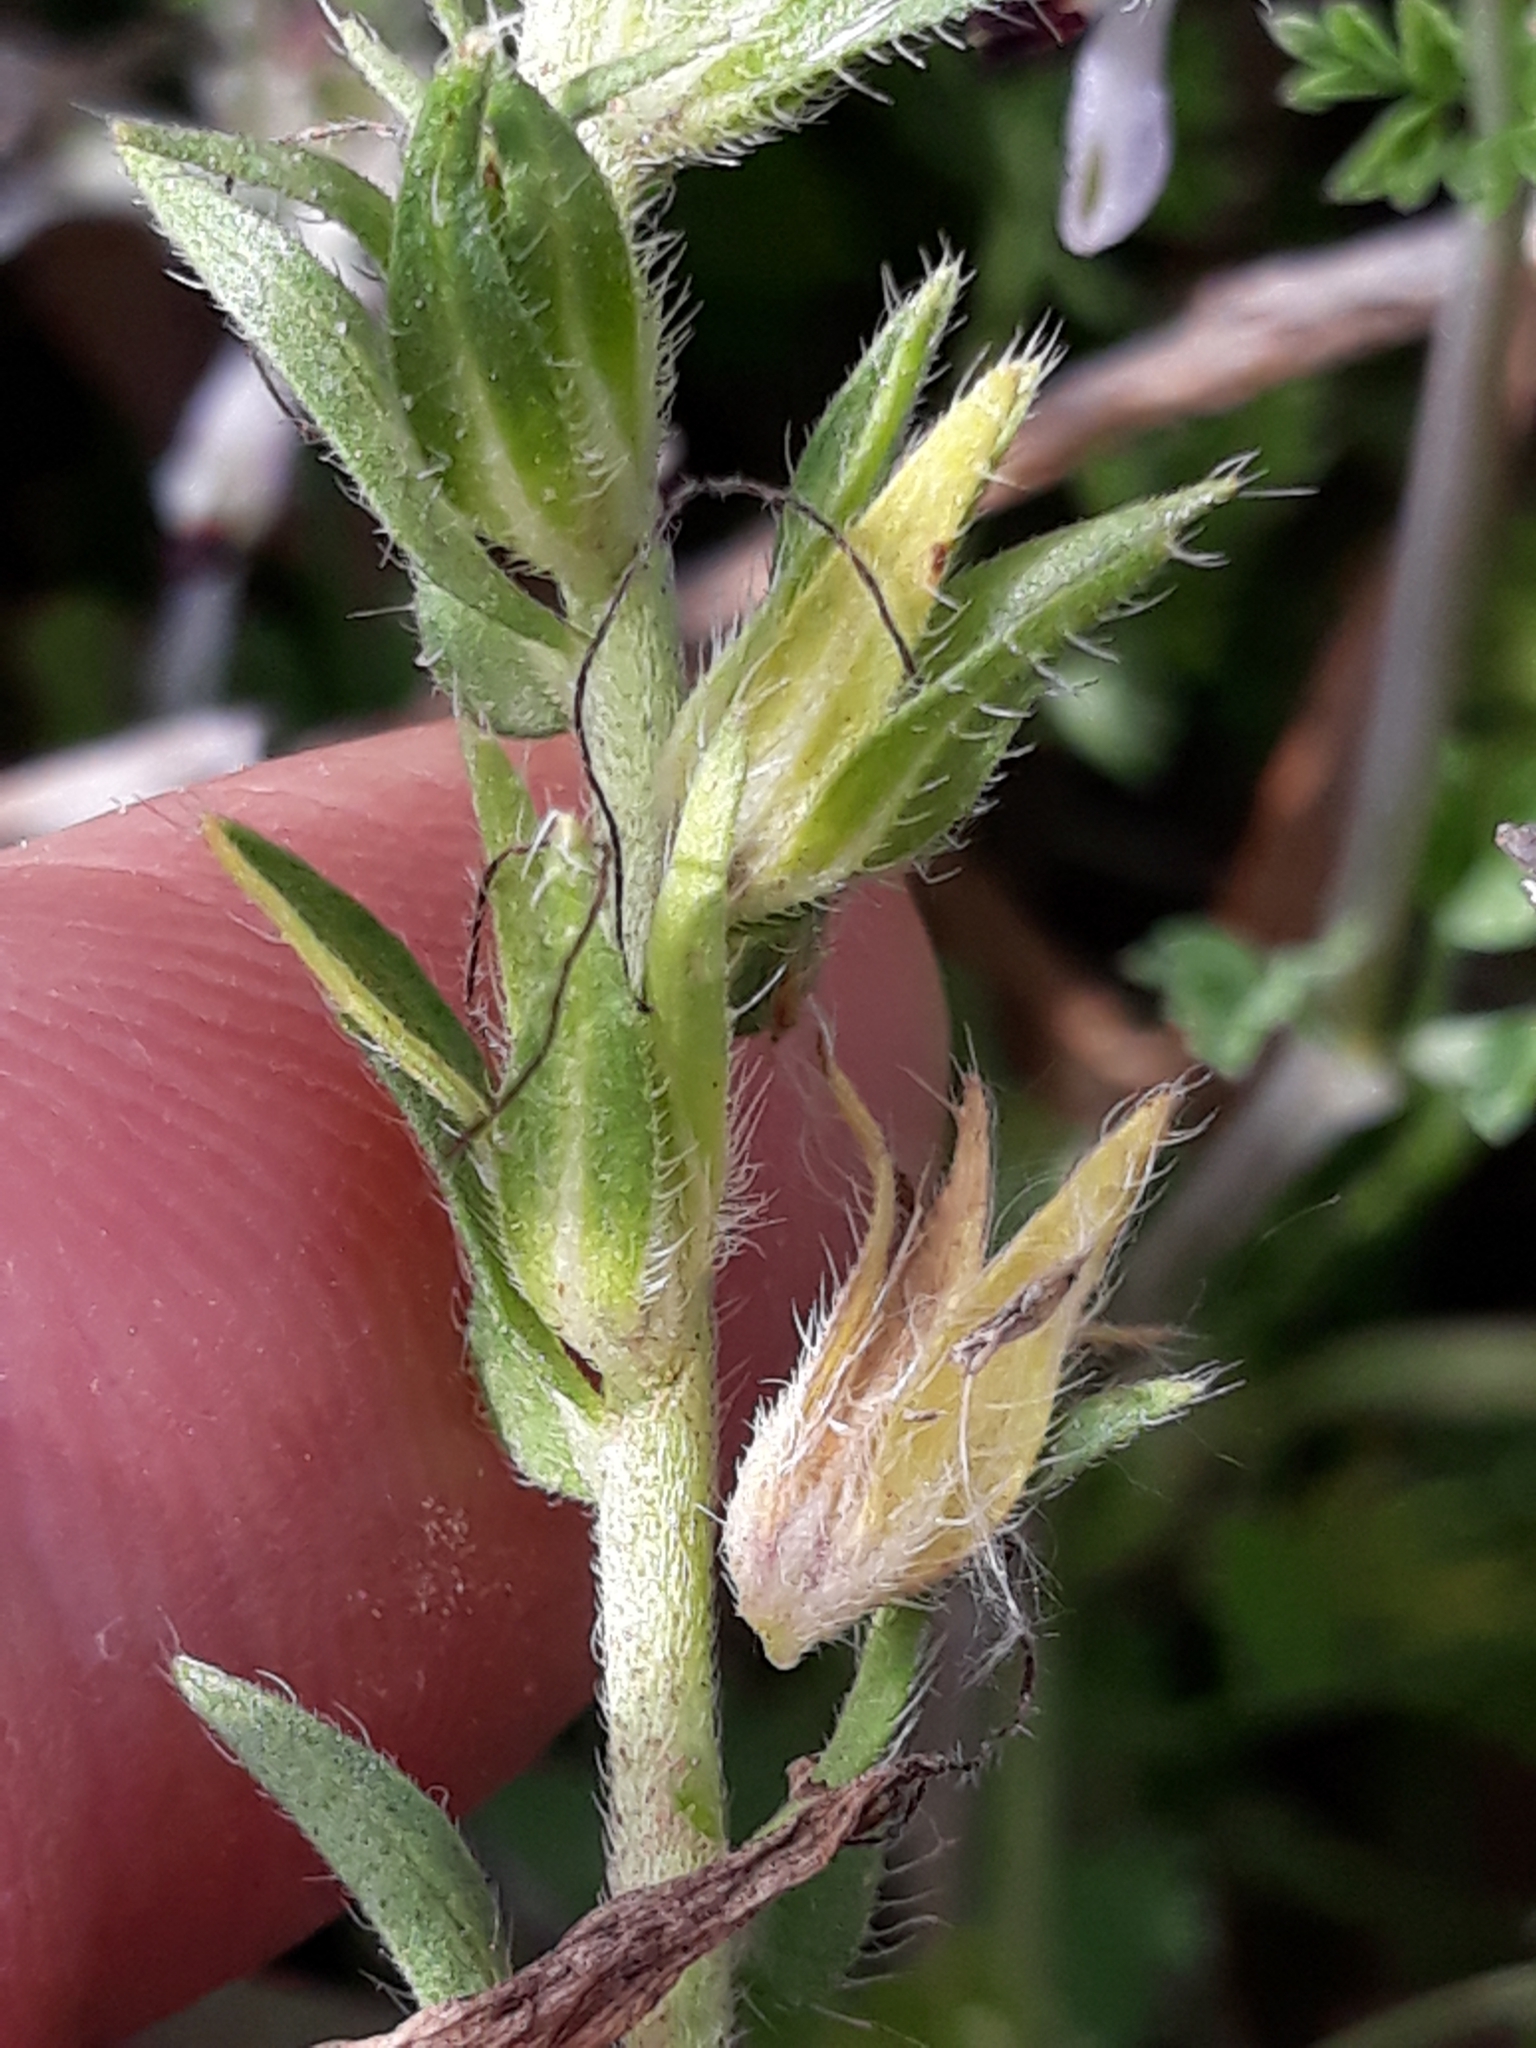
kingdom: Plantae
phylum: Tracheophyta
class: Magnoliopsida
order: Boraginales
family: Boraginaceae
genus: Echium
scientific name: Echium plantagineum
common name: Purple viper's-bugloss
